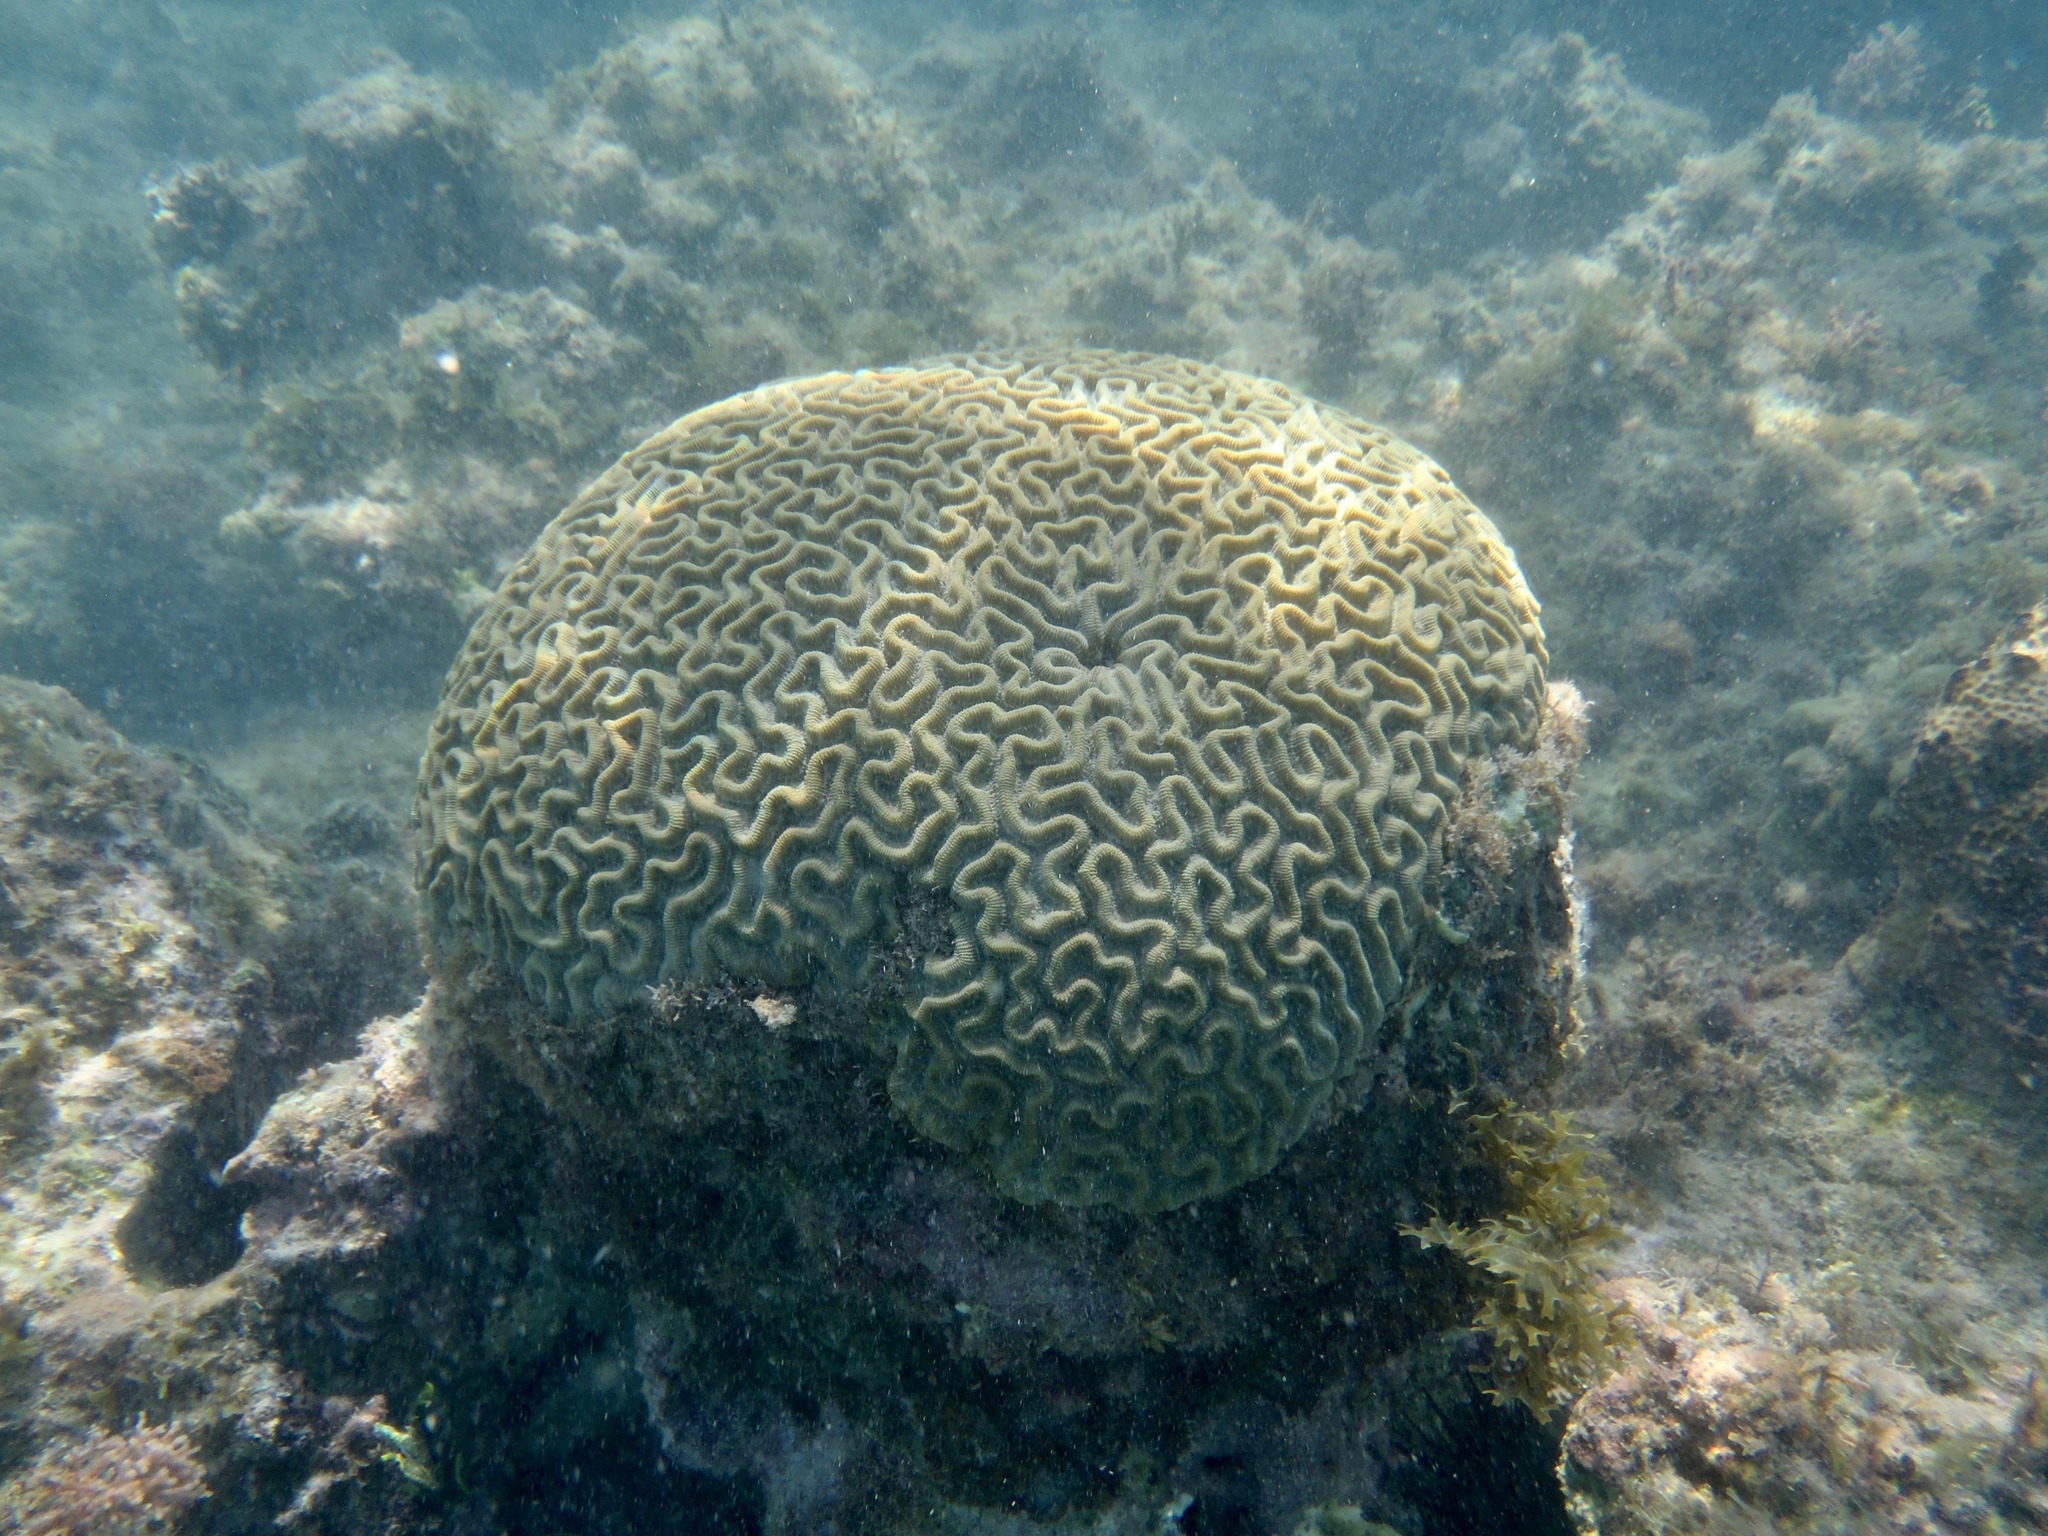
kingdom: Animalia
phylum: Cnidaria
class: Anthozoa
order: Scleractinia
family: Faviidae
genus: Colpophyllia
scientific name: Colpophyllia natans
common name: Boulder brain coral
